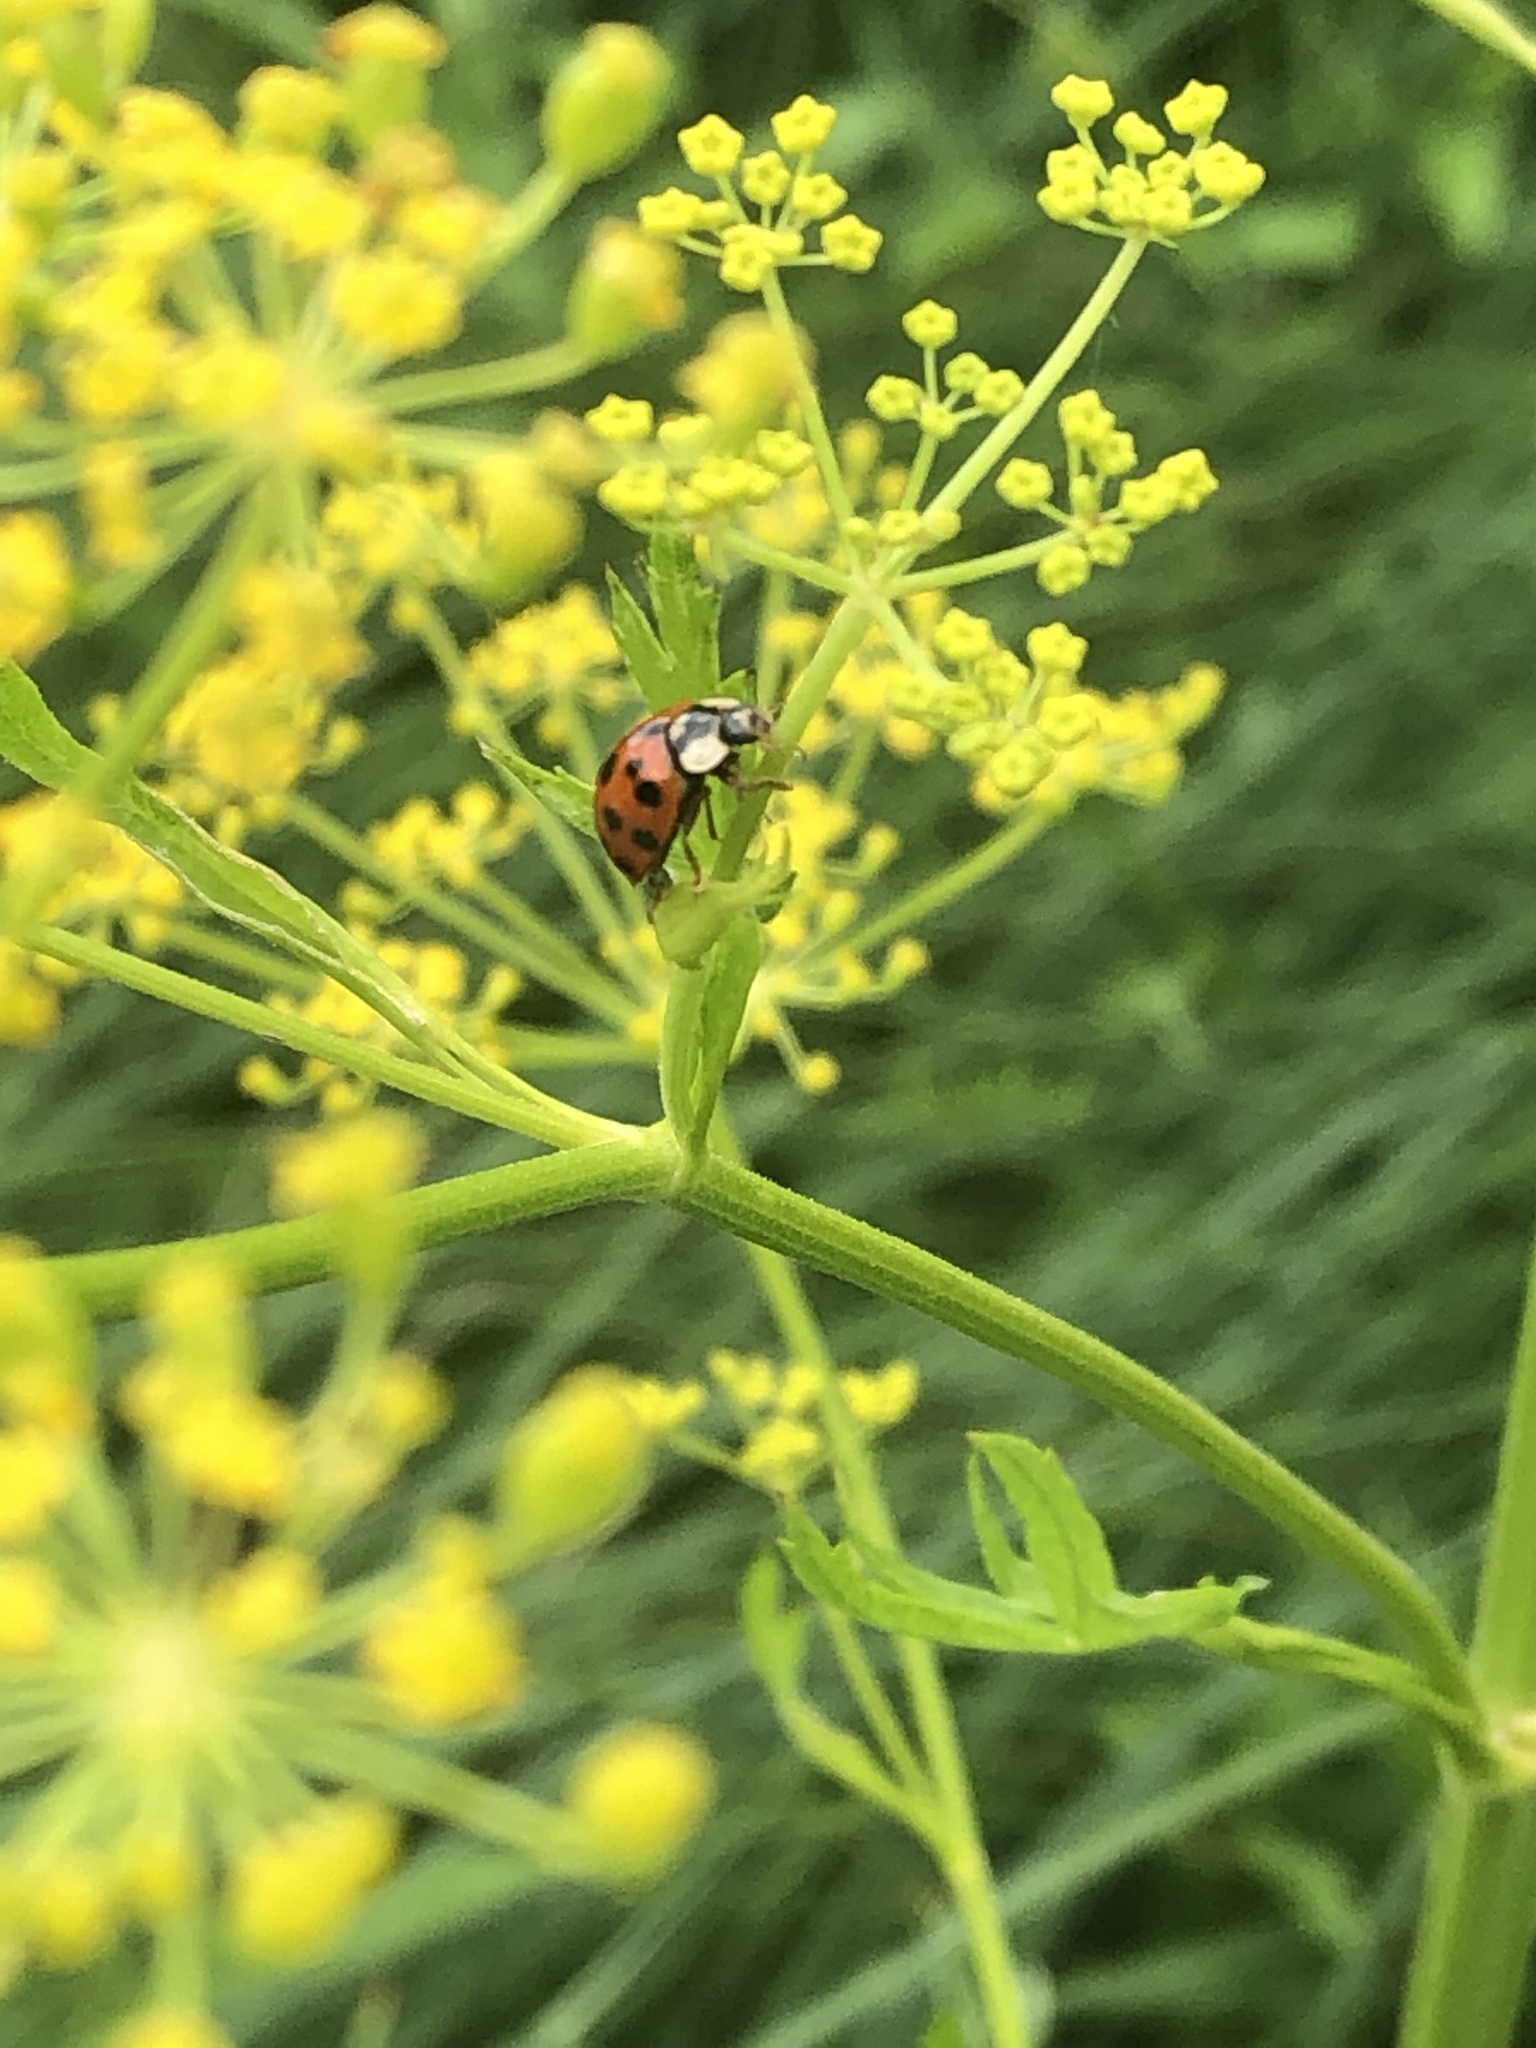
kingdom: Animalia
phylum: Arthropoda
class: Insecta
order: Coleoptera
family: Coccinellidae
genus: Harmonia
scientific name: Harmonia axyridis
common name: Harlequin ladybird
